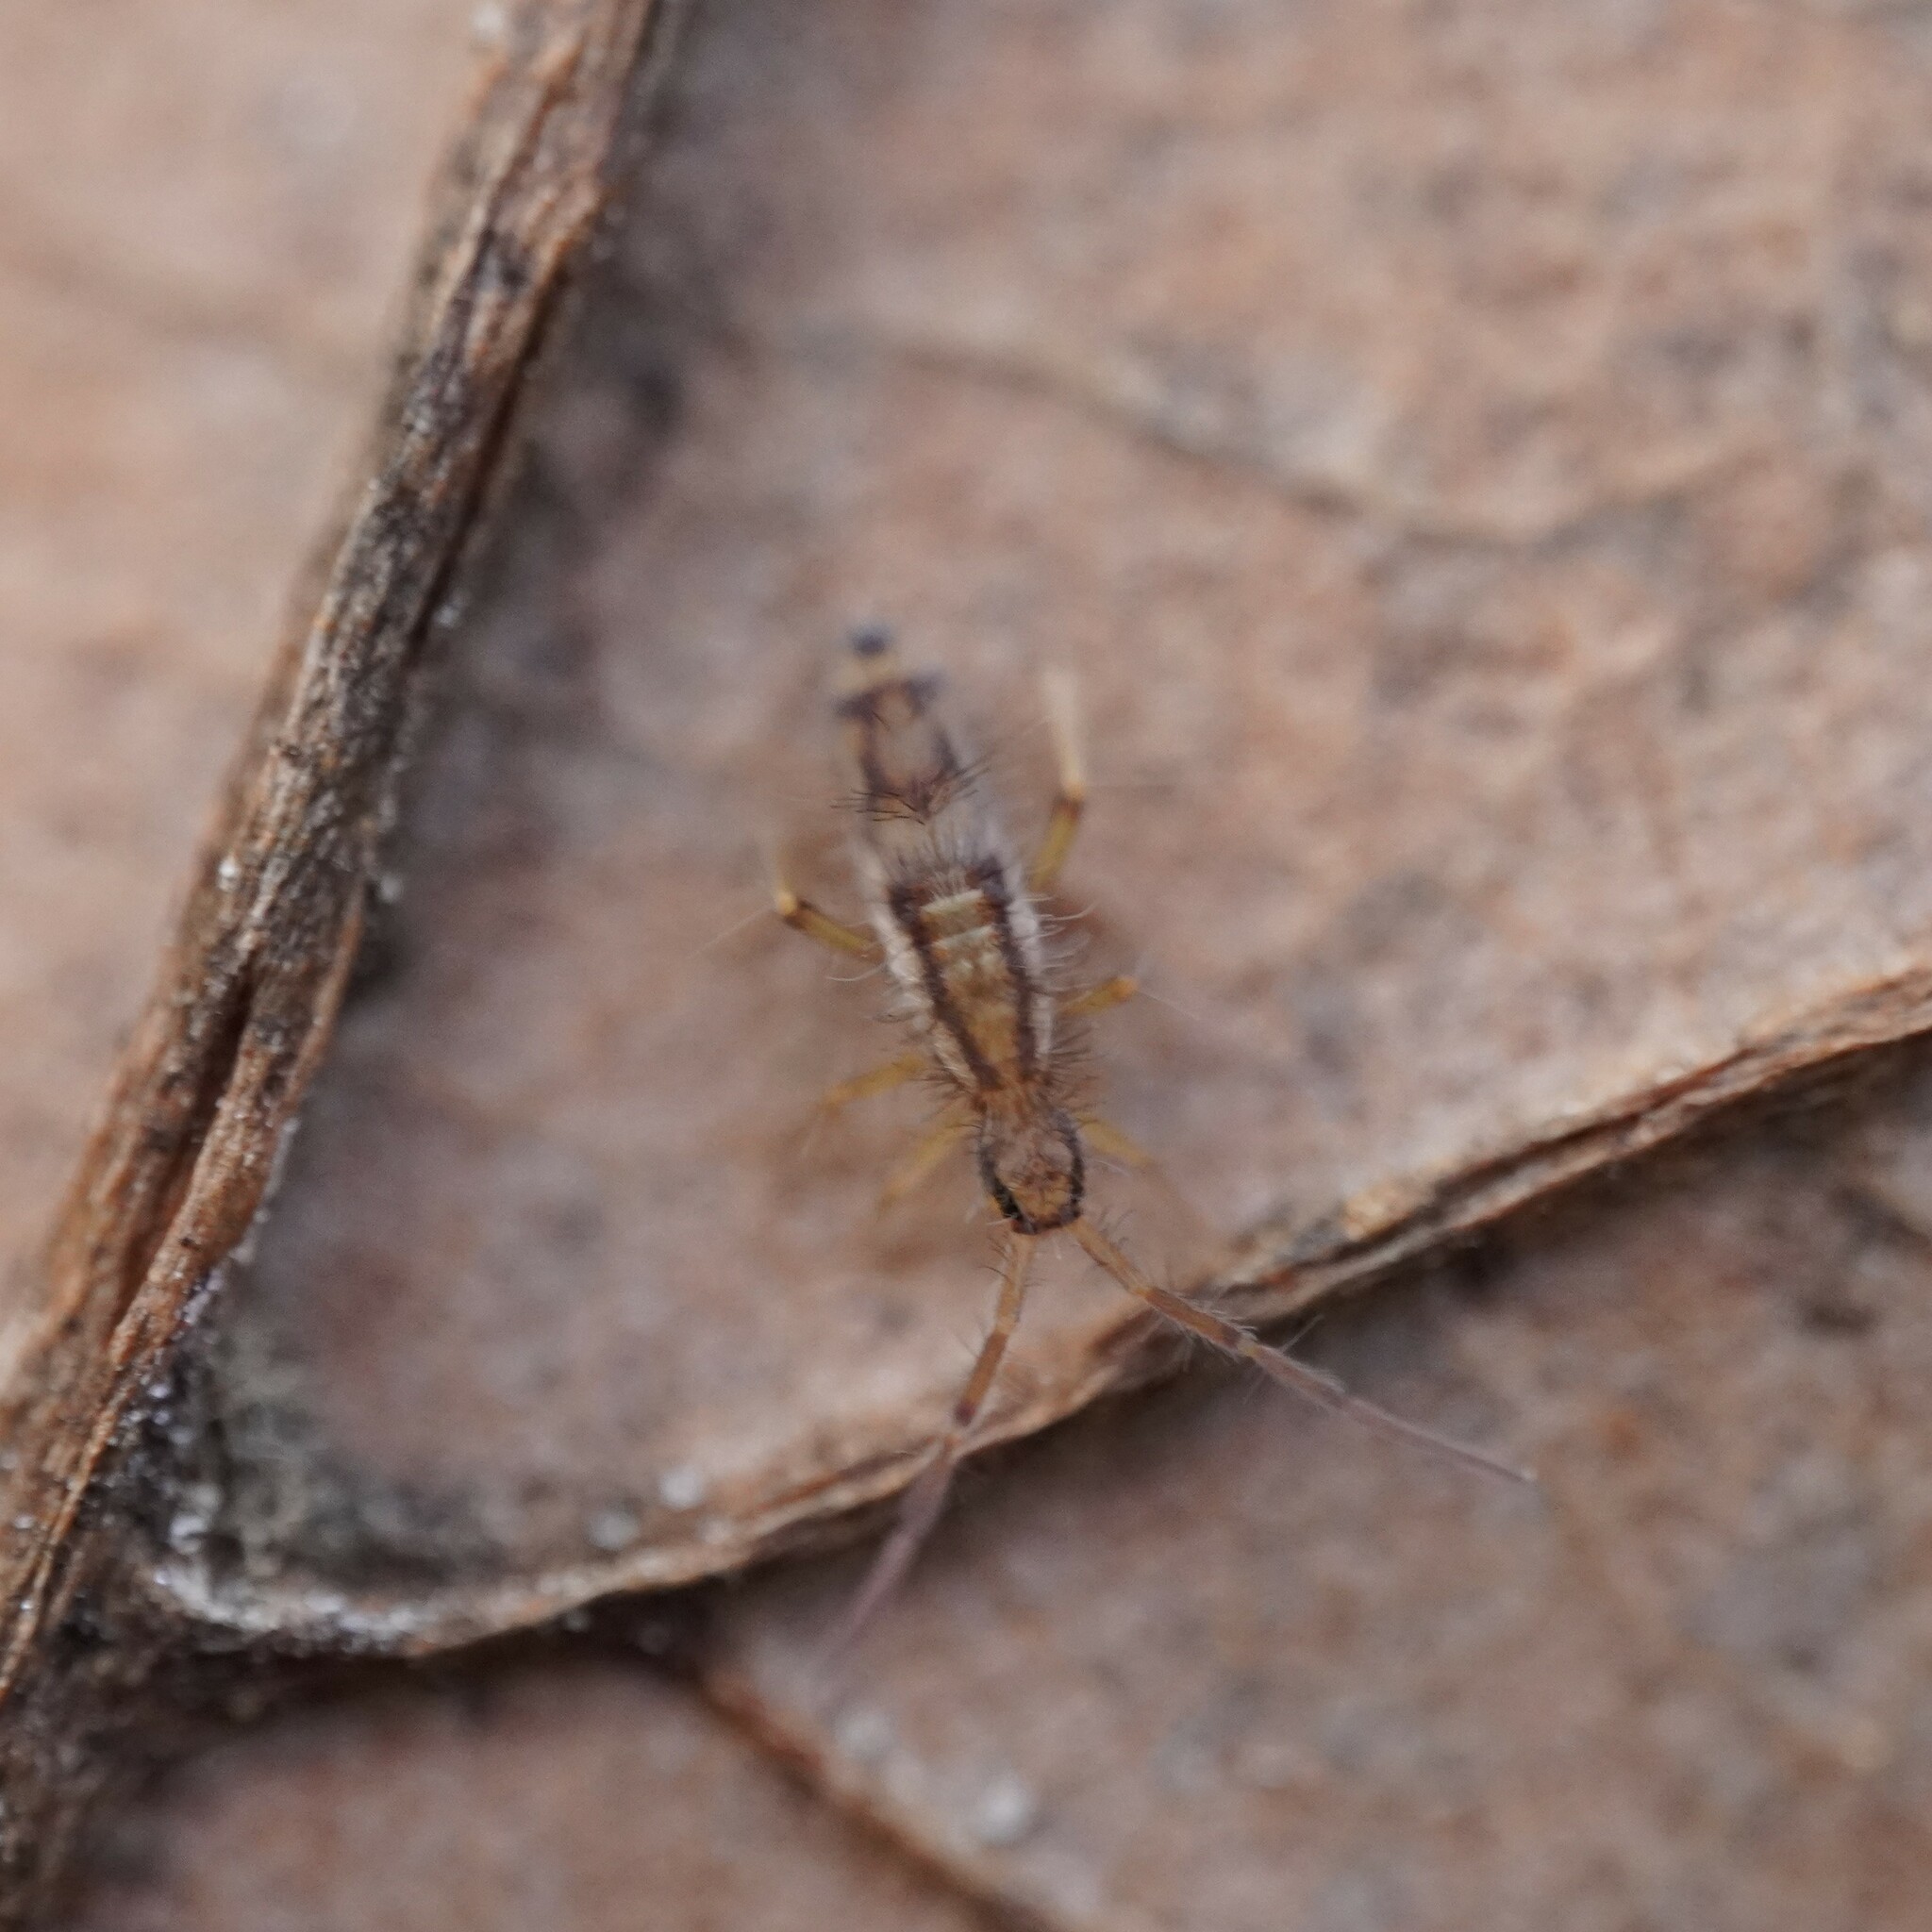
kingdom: Animalia
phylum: Arthropoda
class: Collembola
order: Entomobryomorpha
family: Entomobryidae
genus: Entomobrya
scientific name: Entomobrya muscorum
